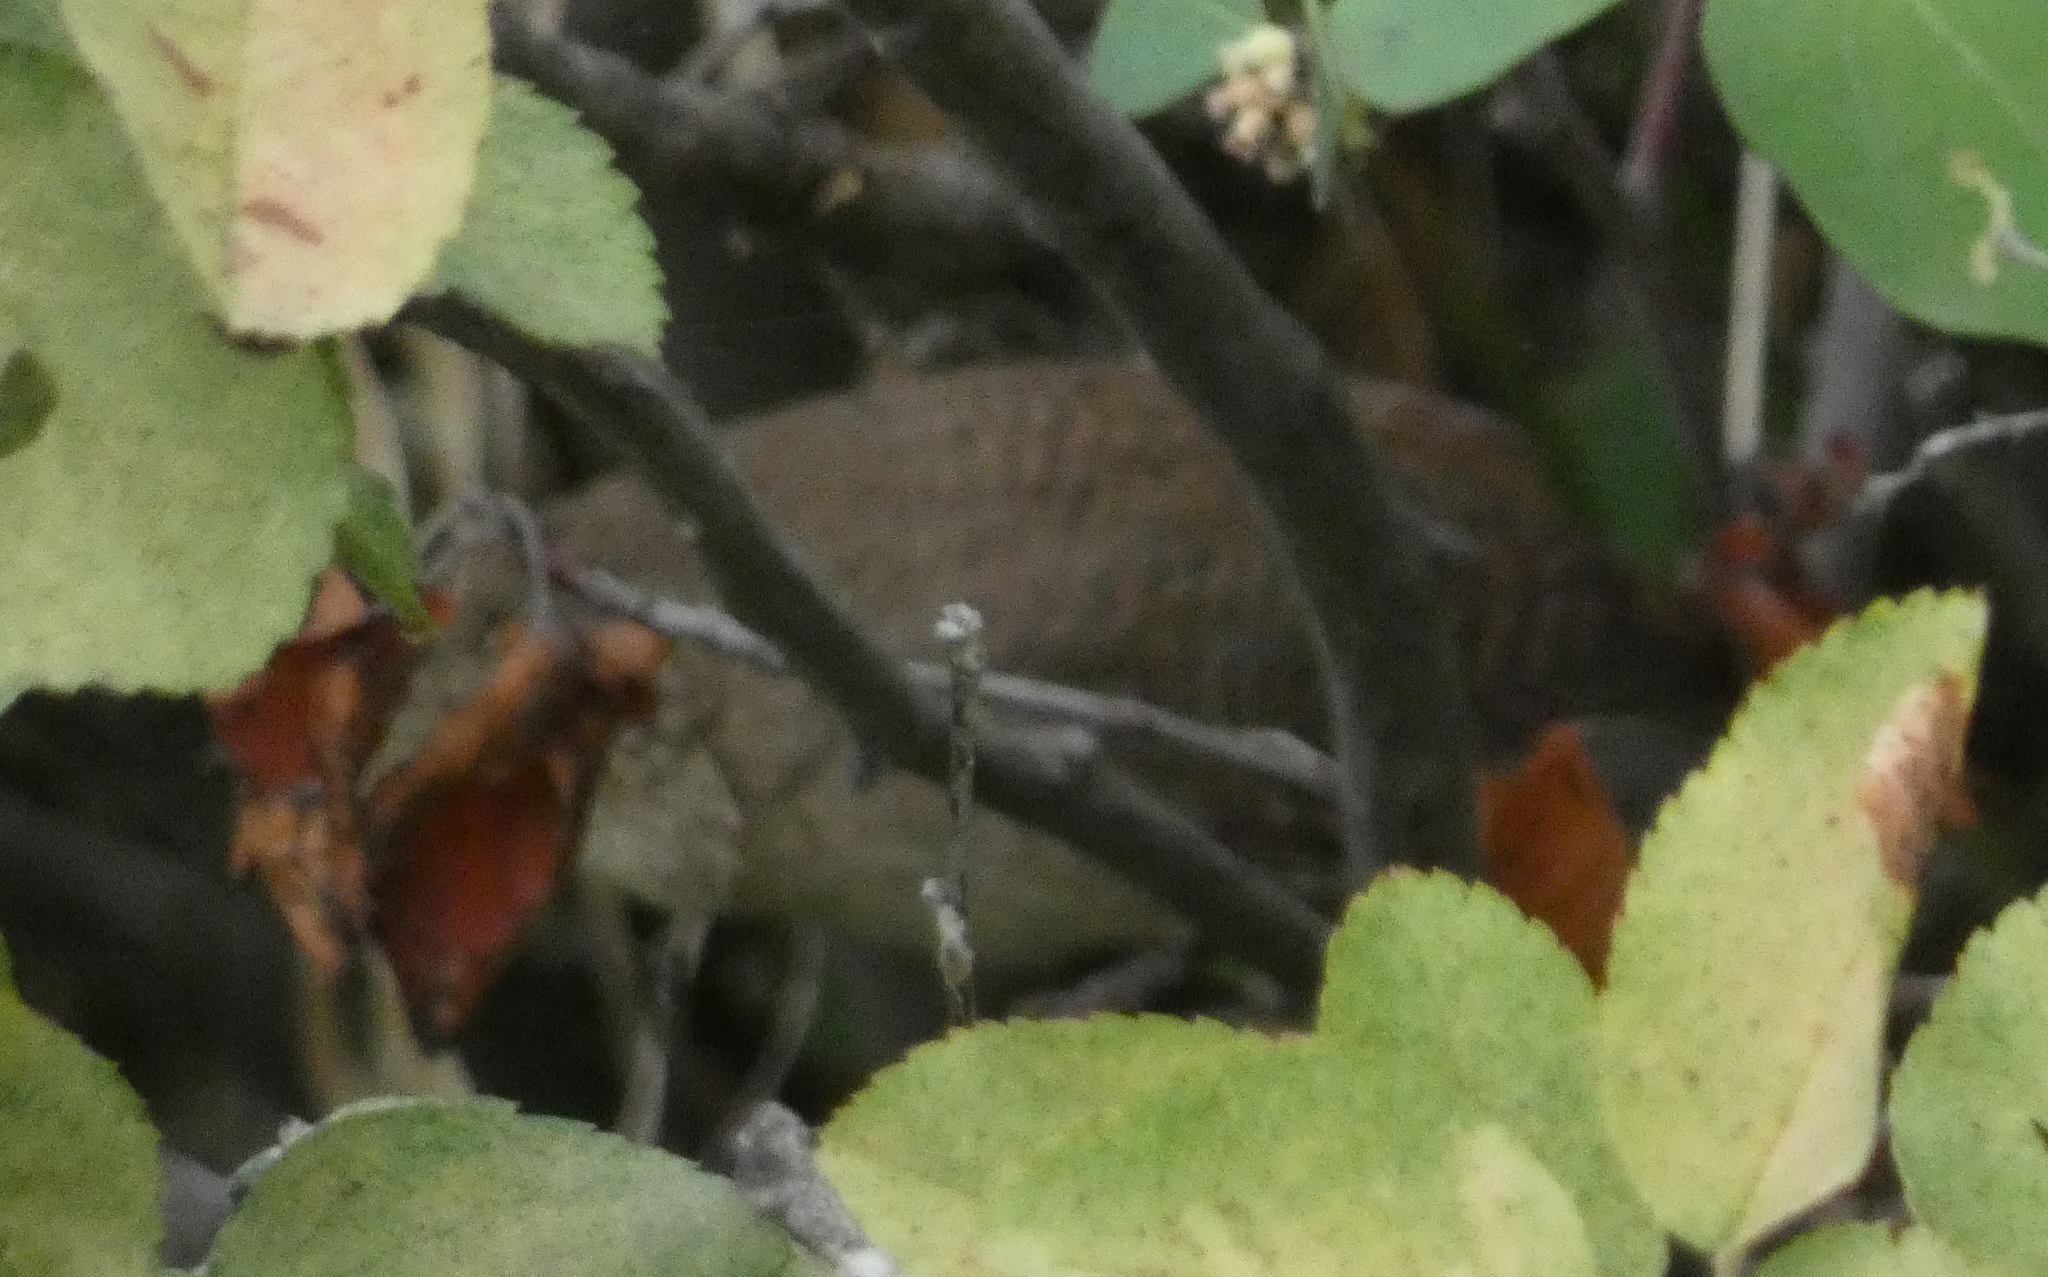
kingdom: Animalia
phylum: Chordata
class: Aves
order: Passeriformes
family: Troglodytidae
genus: Troglodytes
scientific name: Troglodytes aedon
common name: House wren
